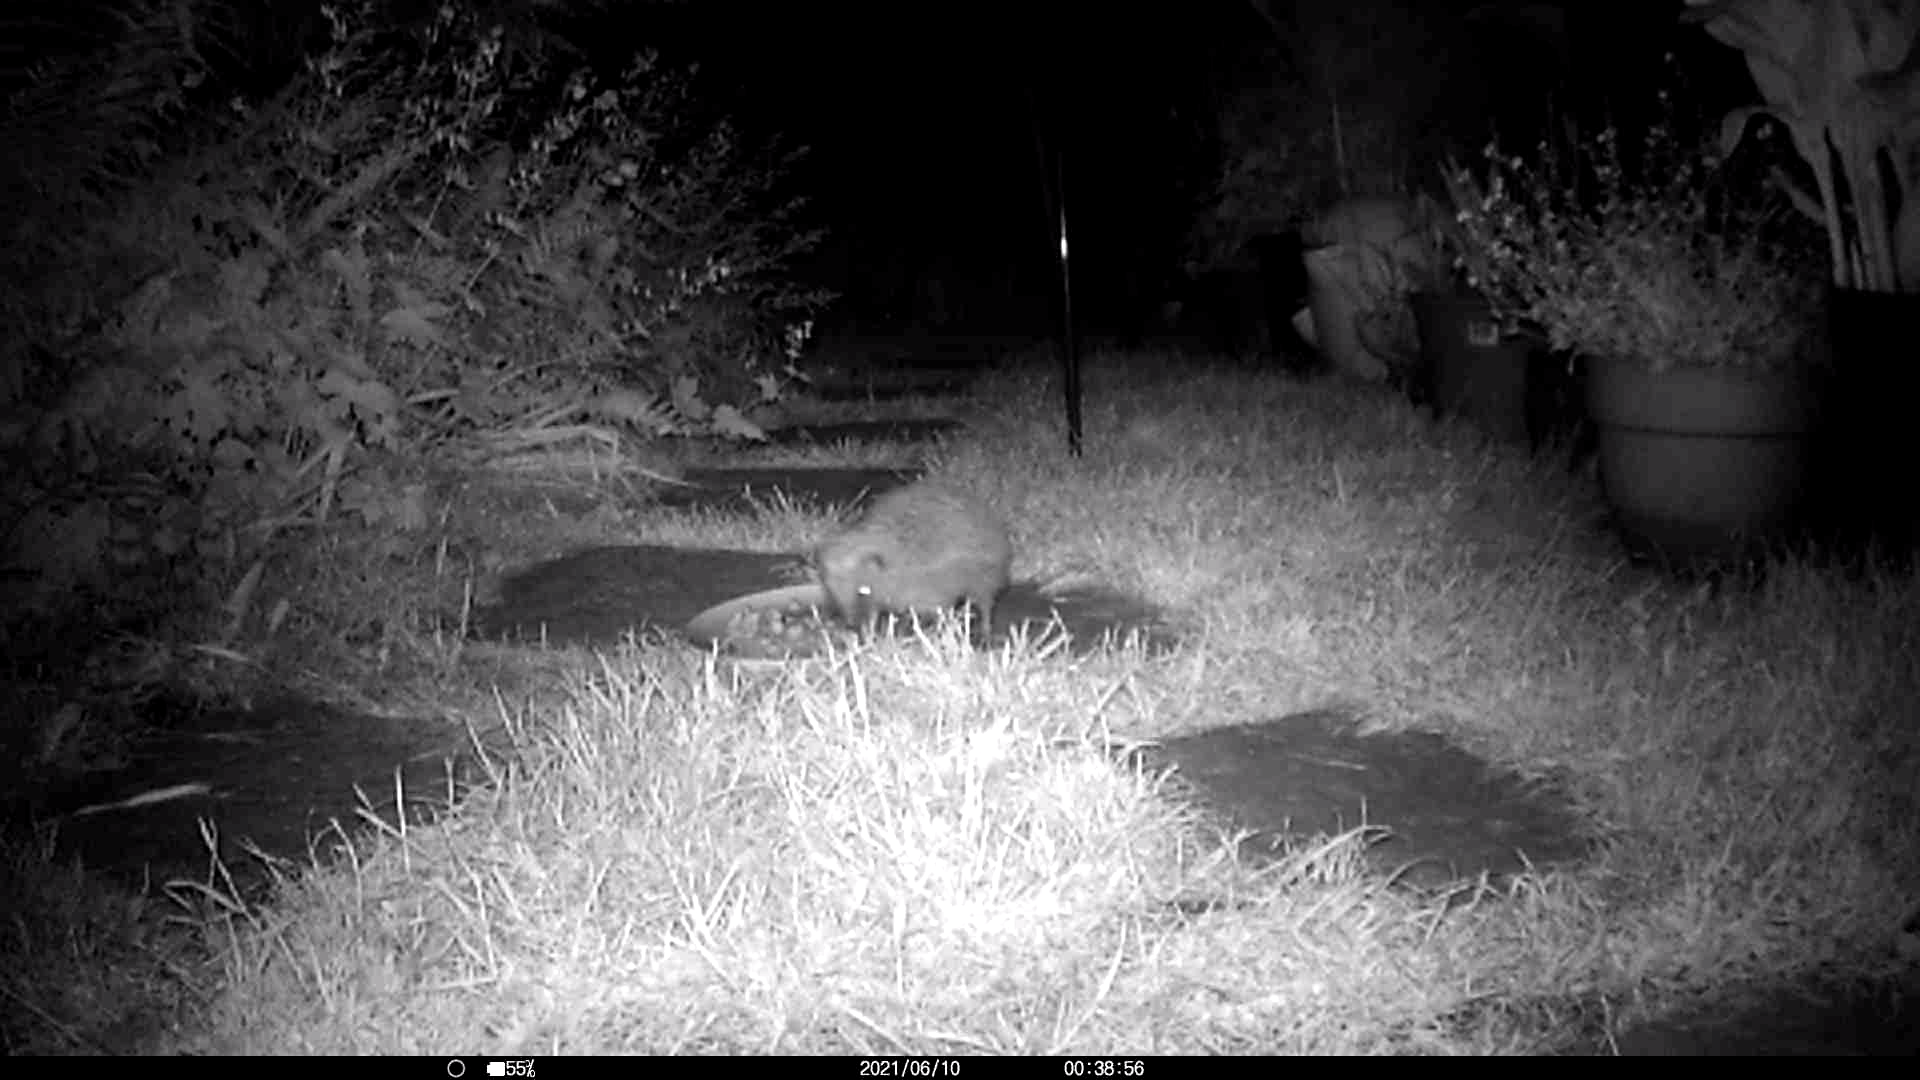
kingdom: Animalia
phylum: Chordata
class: Mammalia
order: Erinaceomorpha
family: Erinaceidae
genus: Erinaceus
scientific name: Erinaceus europaeus
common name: West european hedgehog
